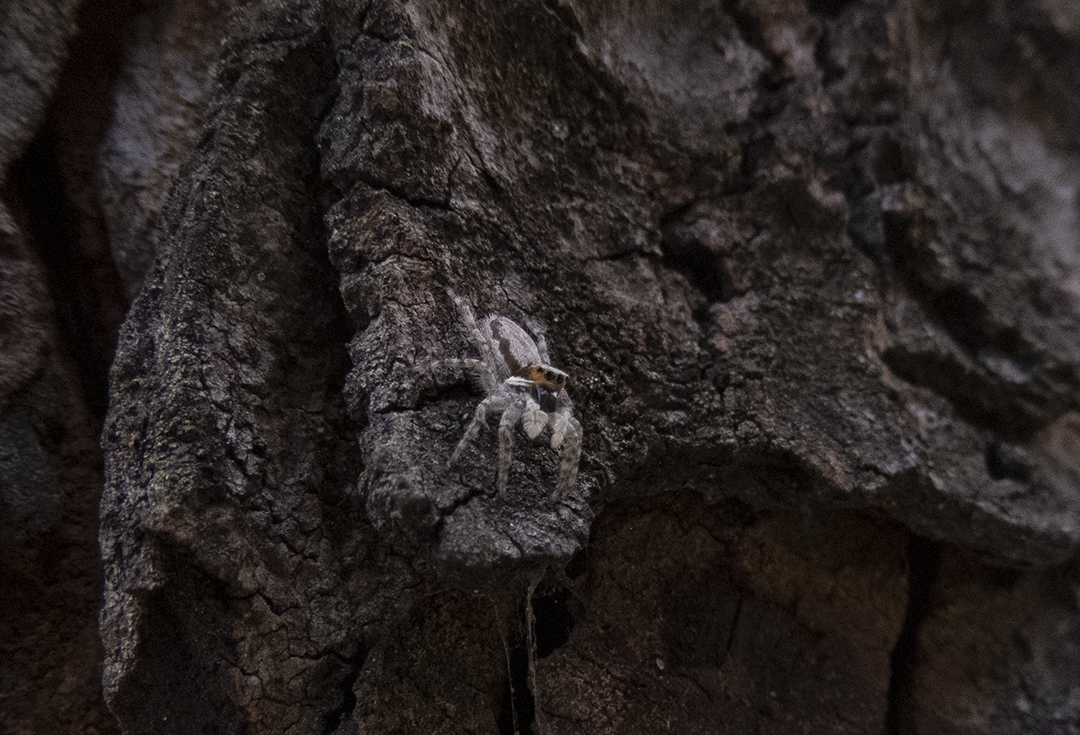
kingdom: Animalia
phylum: Arthropoda
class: Arachnida
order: Araneae
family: Salticidae
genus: Menemerus
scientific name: Menemerus bivittatus
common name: Gray wall jumper
